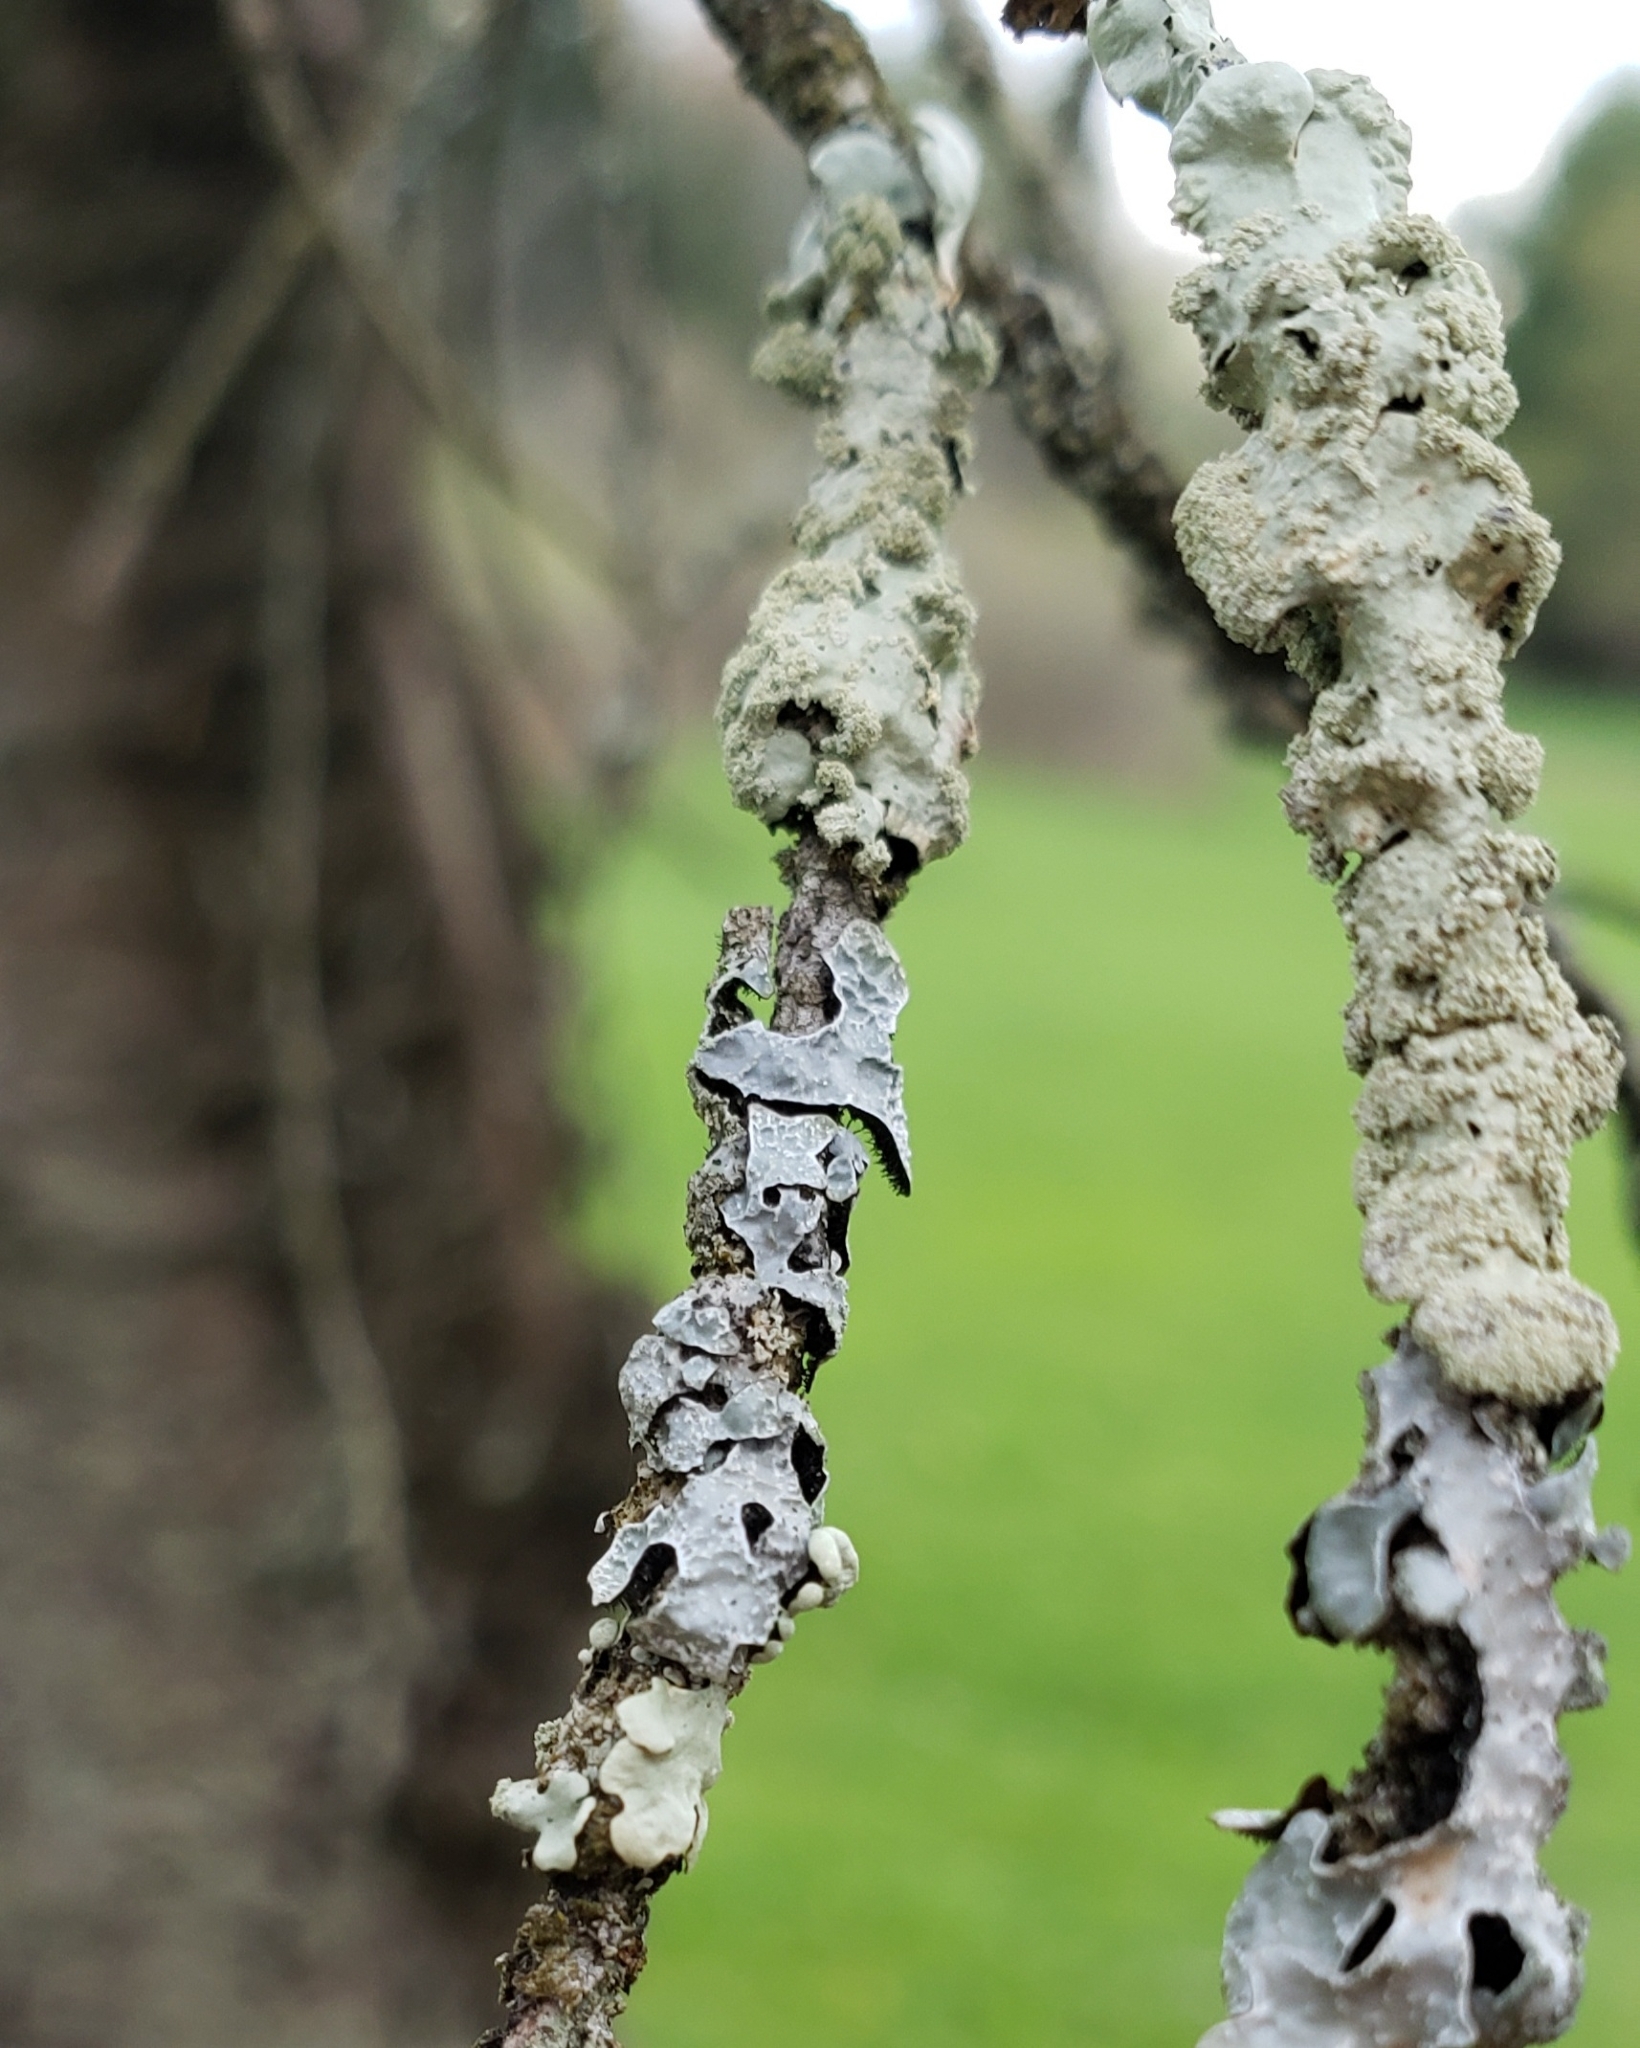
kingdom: Fungi
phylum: Ascomycota
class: Lecanoromycetes
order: Lecanorales
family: Parmeliaceae
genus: Parmelia
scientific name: Parmelia sulcata
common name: Netted shield lichen
